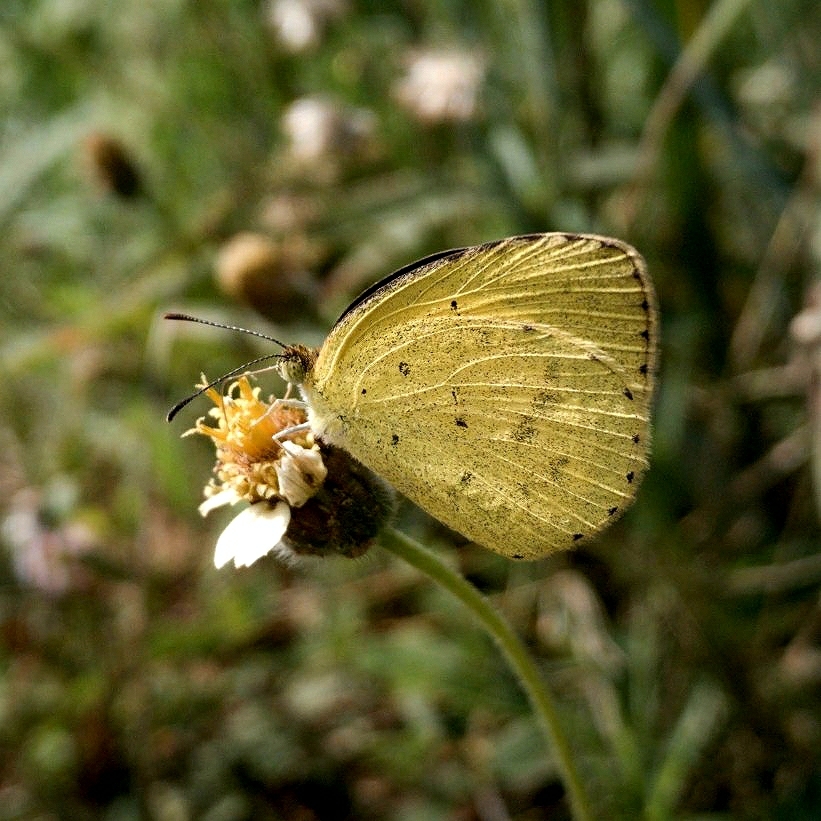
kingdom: Animalia
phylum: Arthropoda
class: Insecta
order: Lepidoptera
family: Pieridae
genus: Eurema
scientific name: Eurema hecabe
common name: Pale grass yellow
